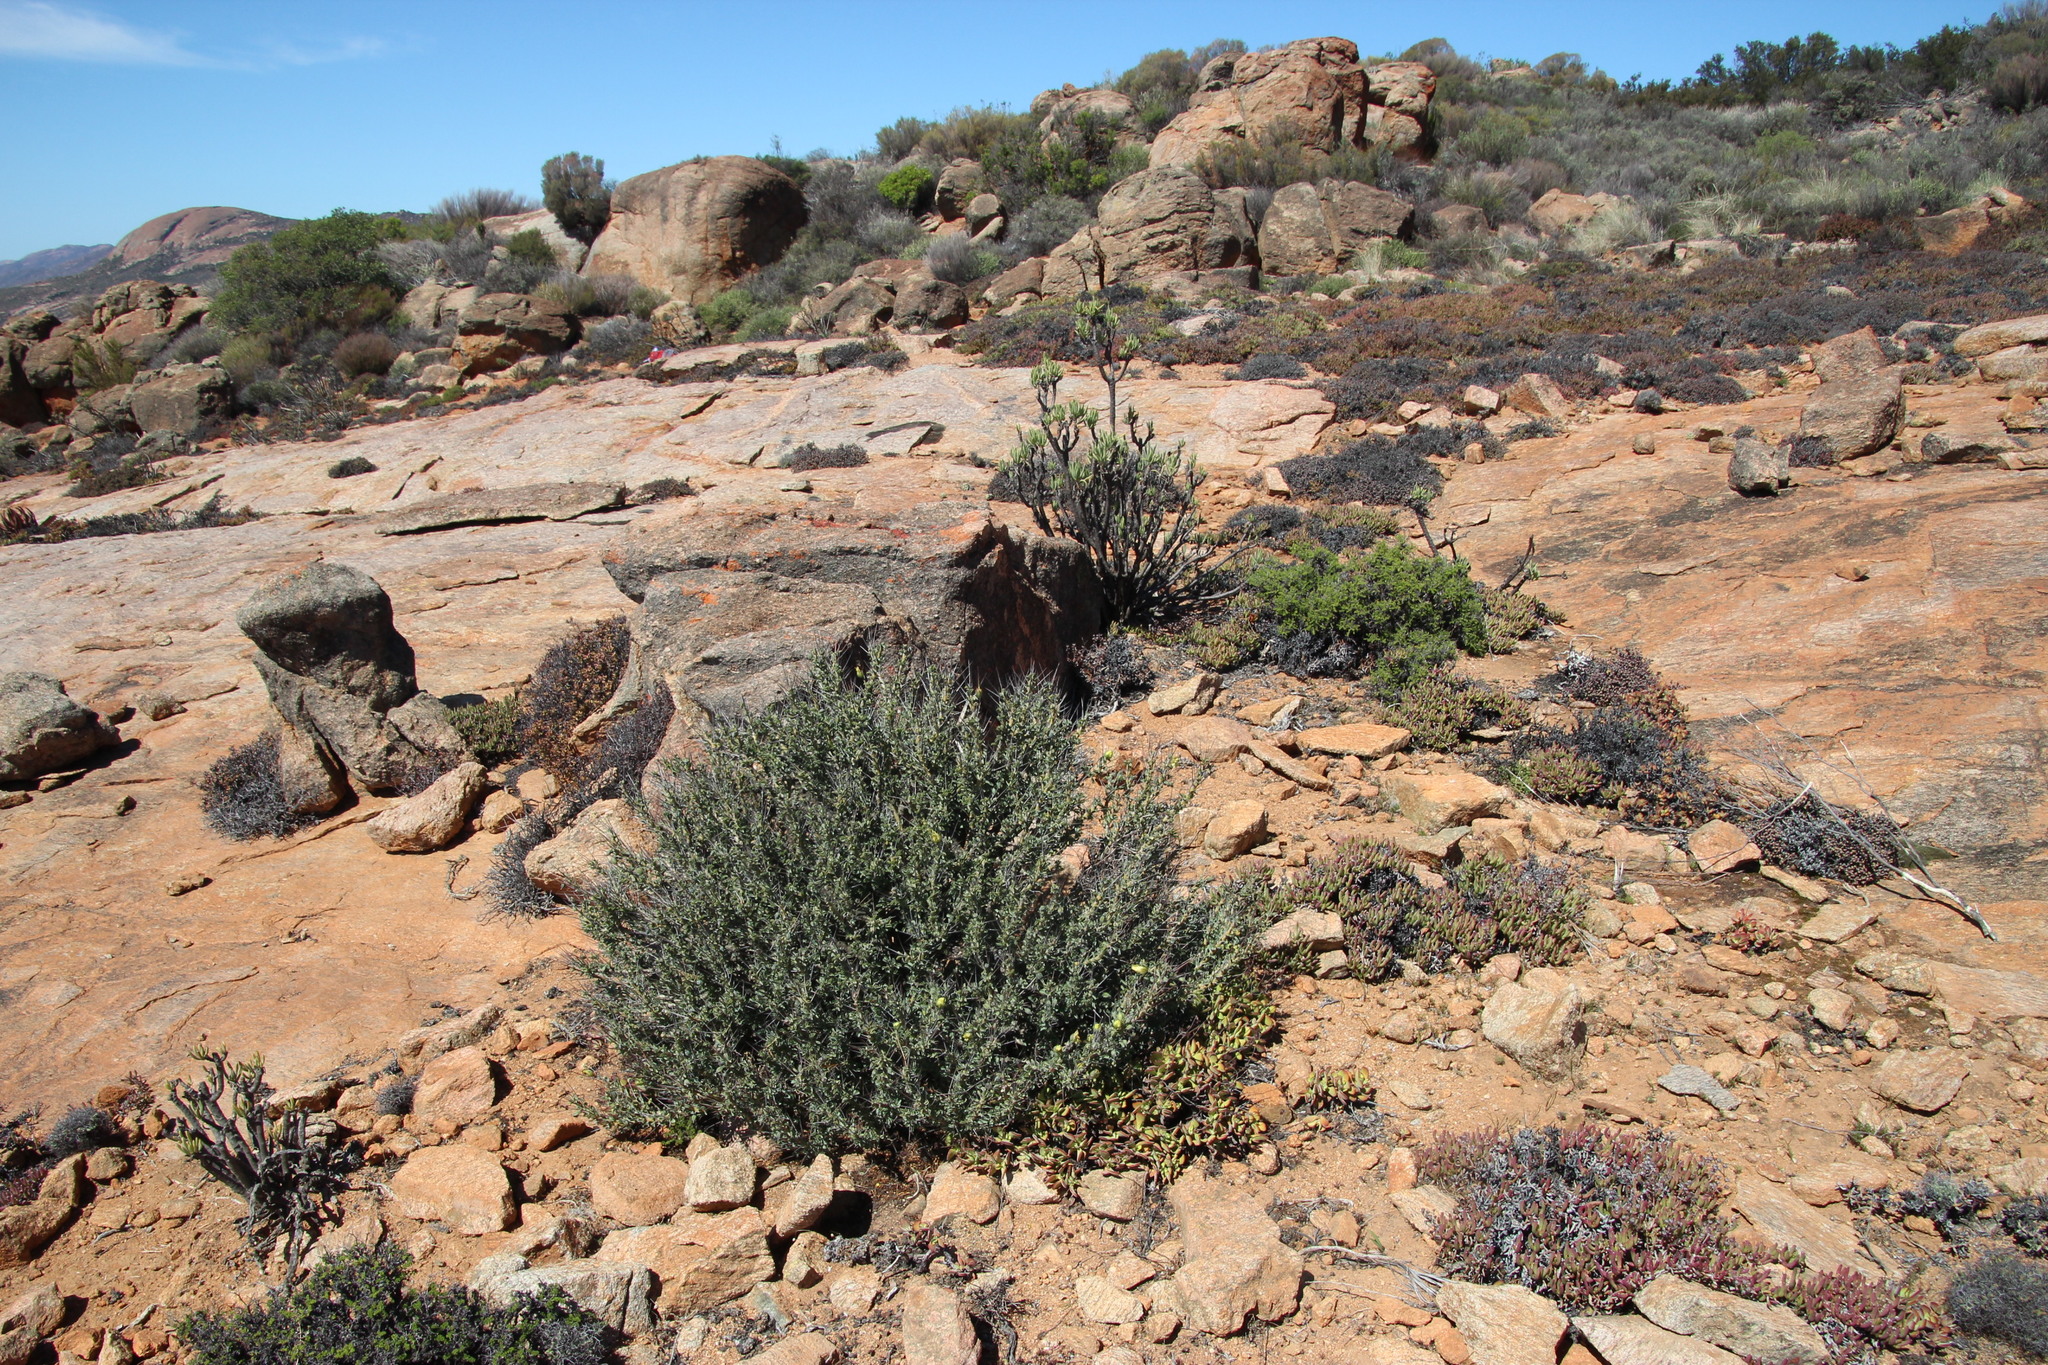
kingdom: Plantae
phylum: Tracheophyta
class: Magnoliopsida
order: Geraniales
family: Geraniaceae
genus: Monsonia
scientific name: Monsonia spinosa
